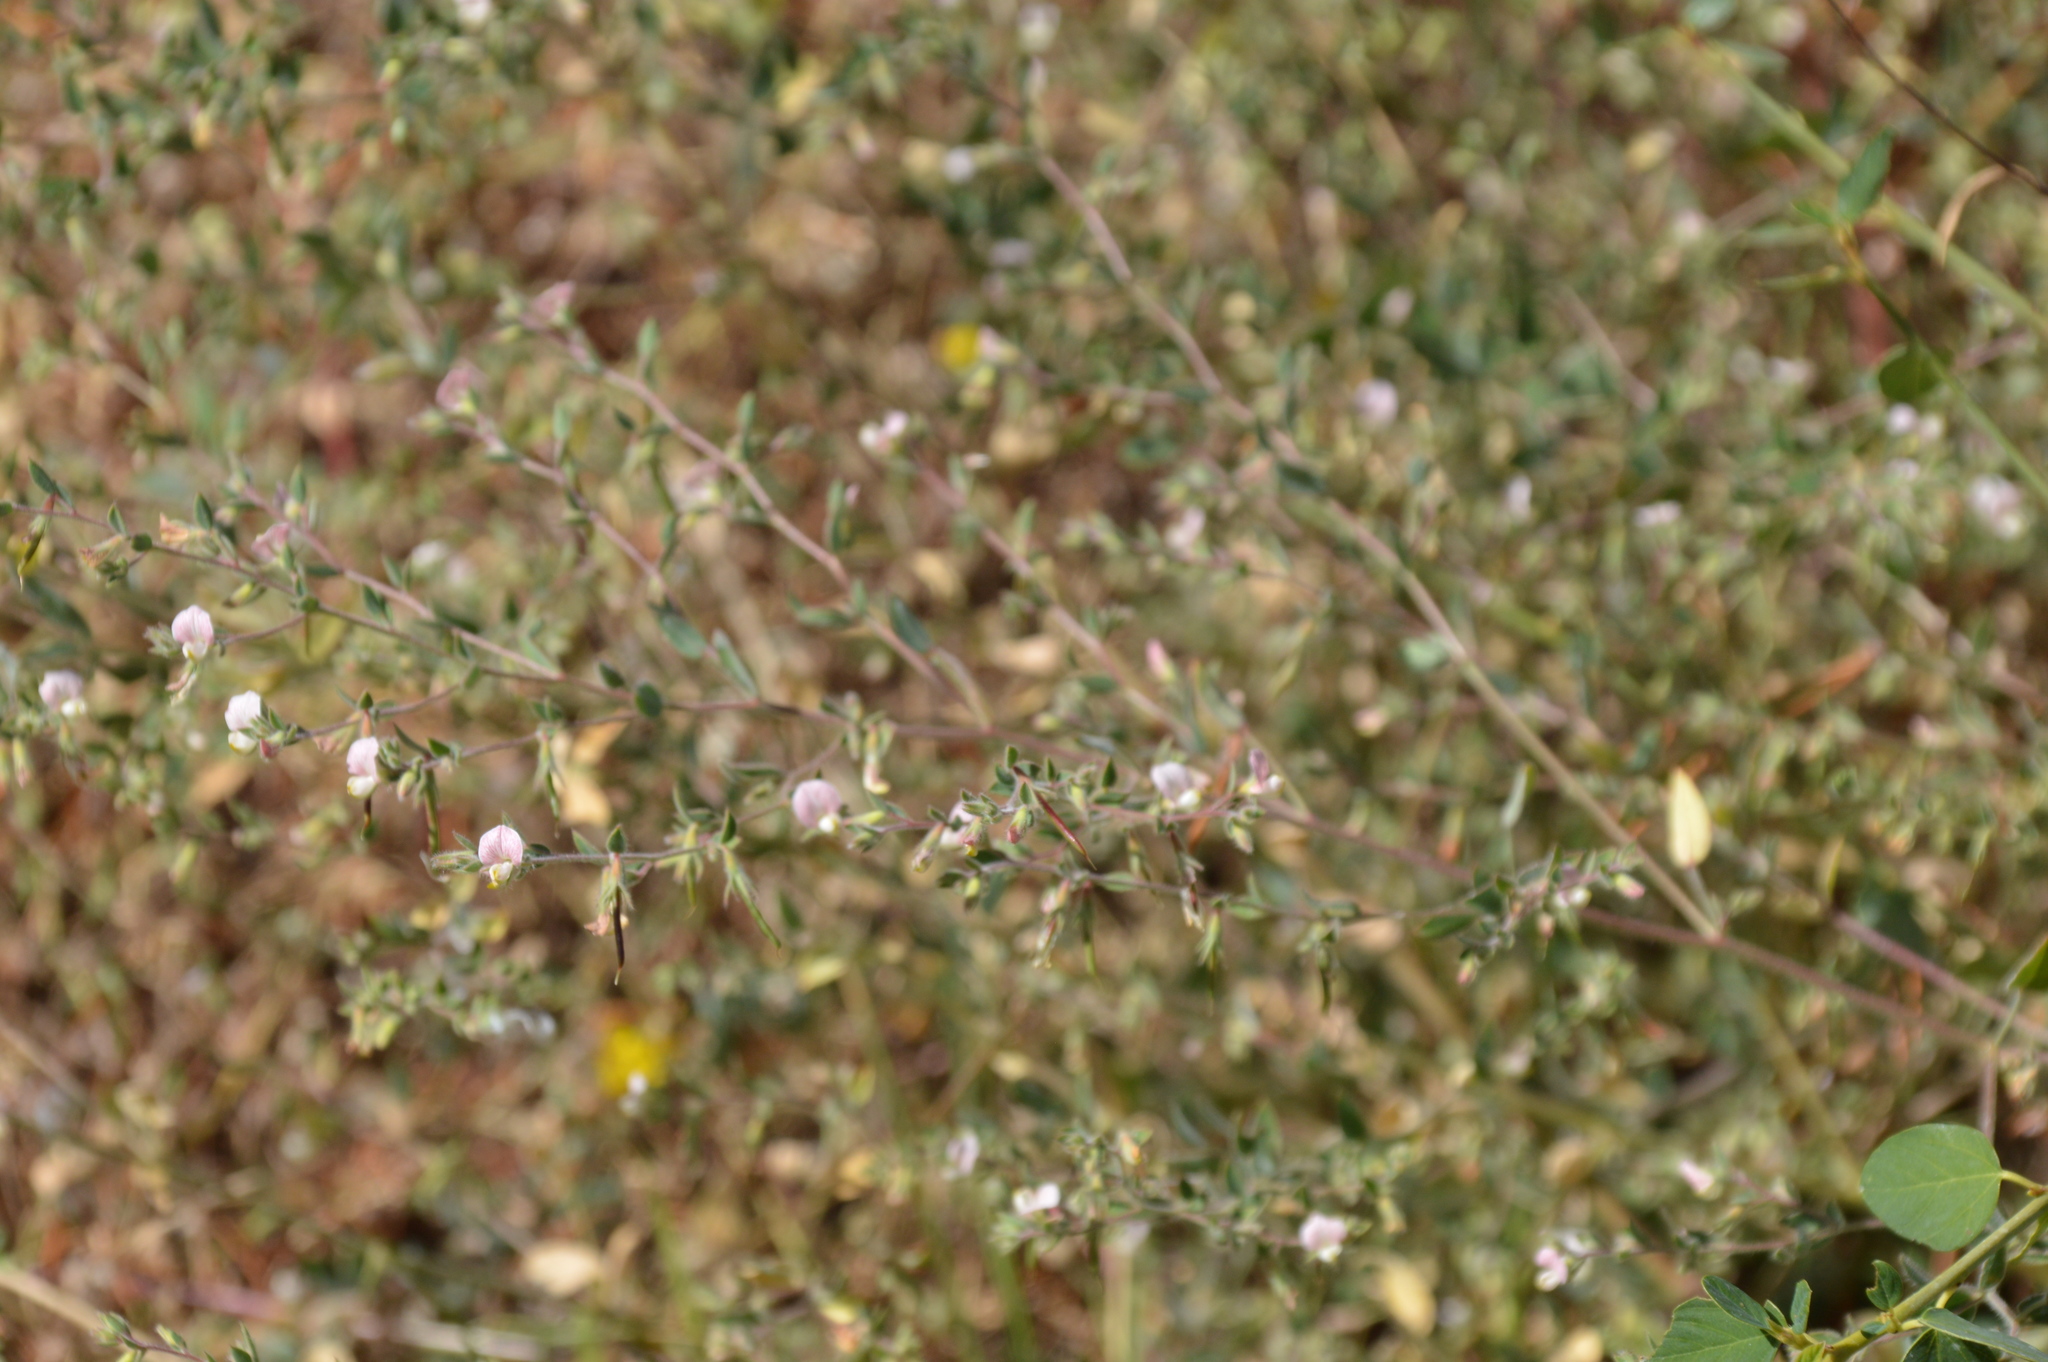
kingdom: Plantae
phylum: Tracheophyta
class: Magnoliopsida
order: Fabales
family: Fabaceae
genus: Acmispon
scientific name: Acmispon americanus
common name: American bird's-foot trefoil
